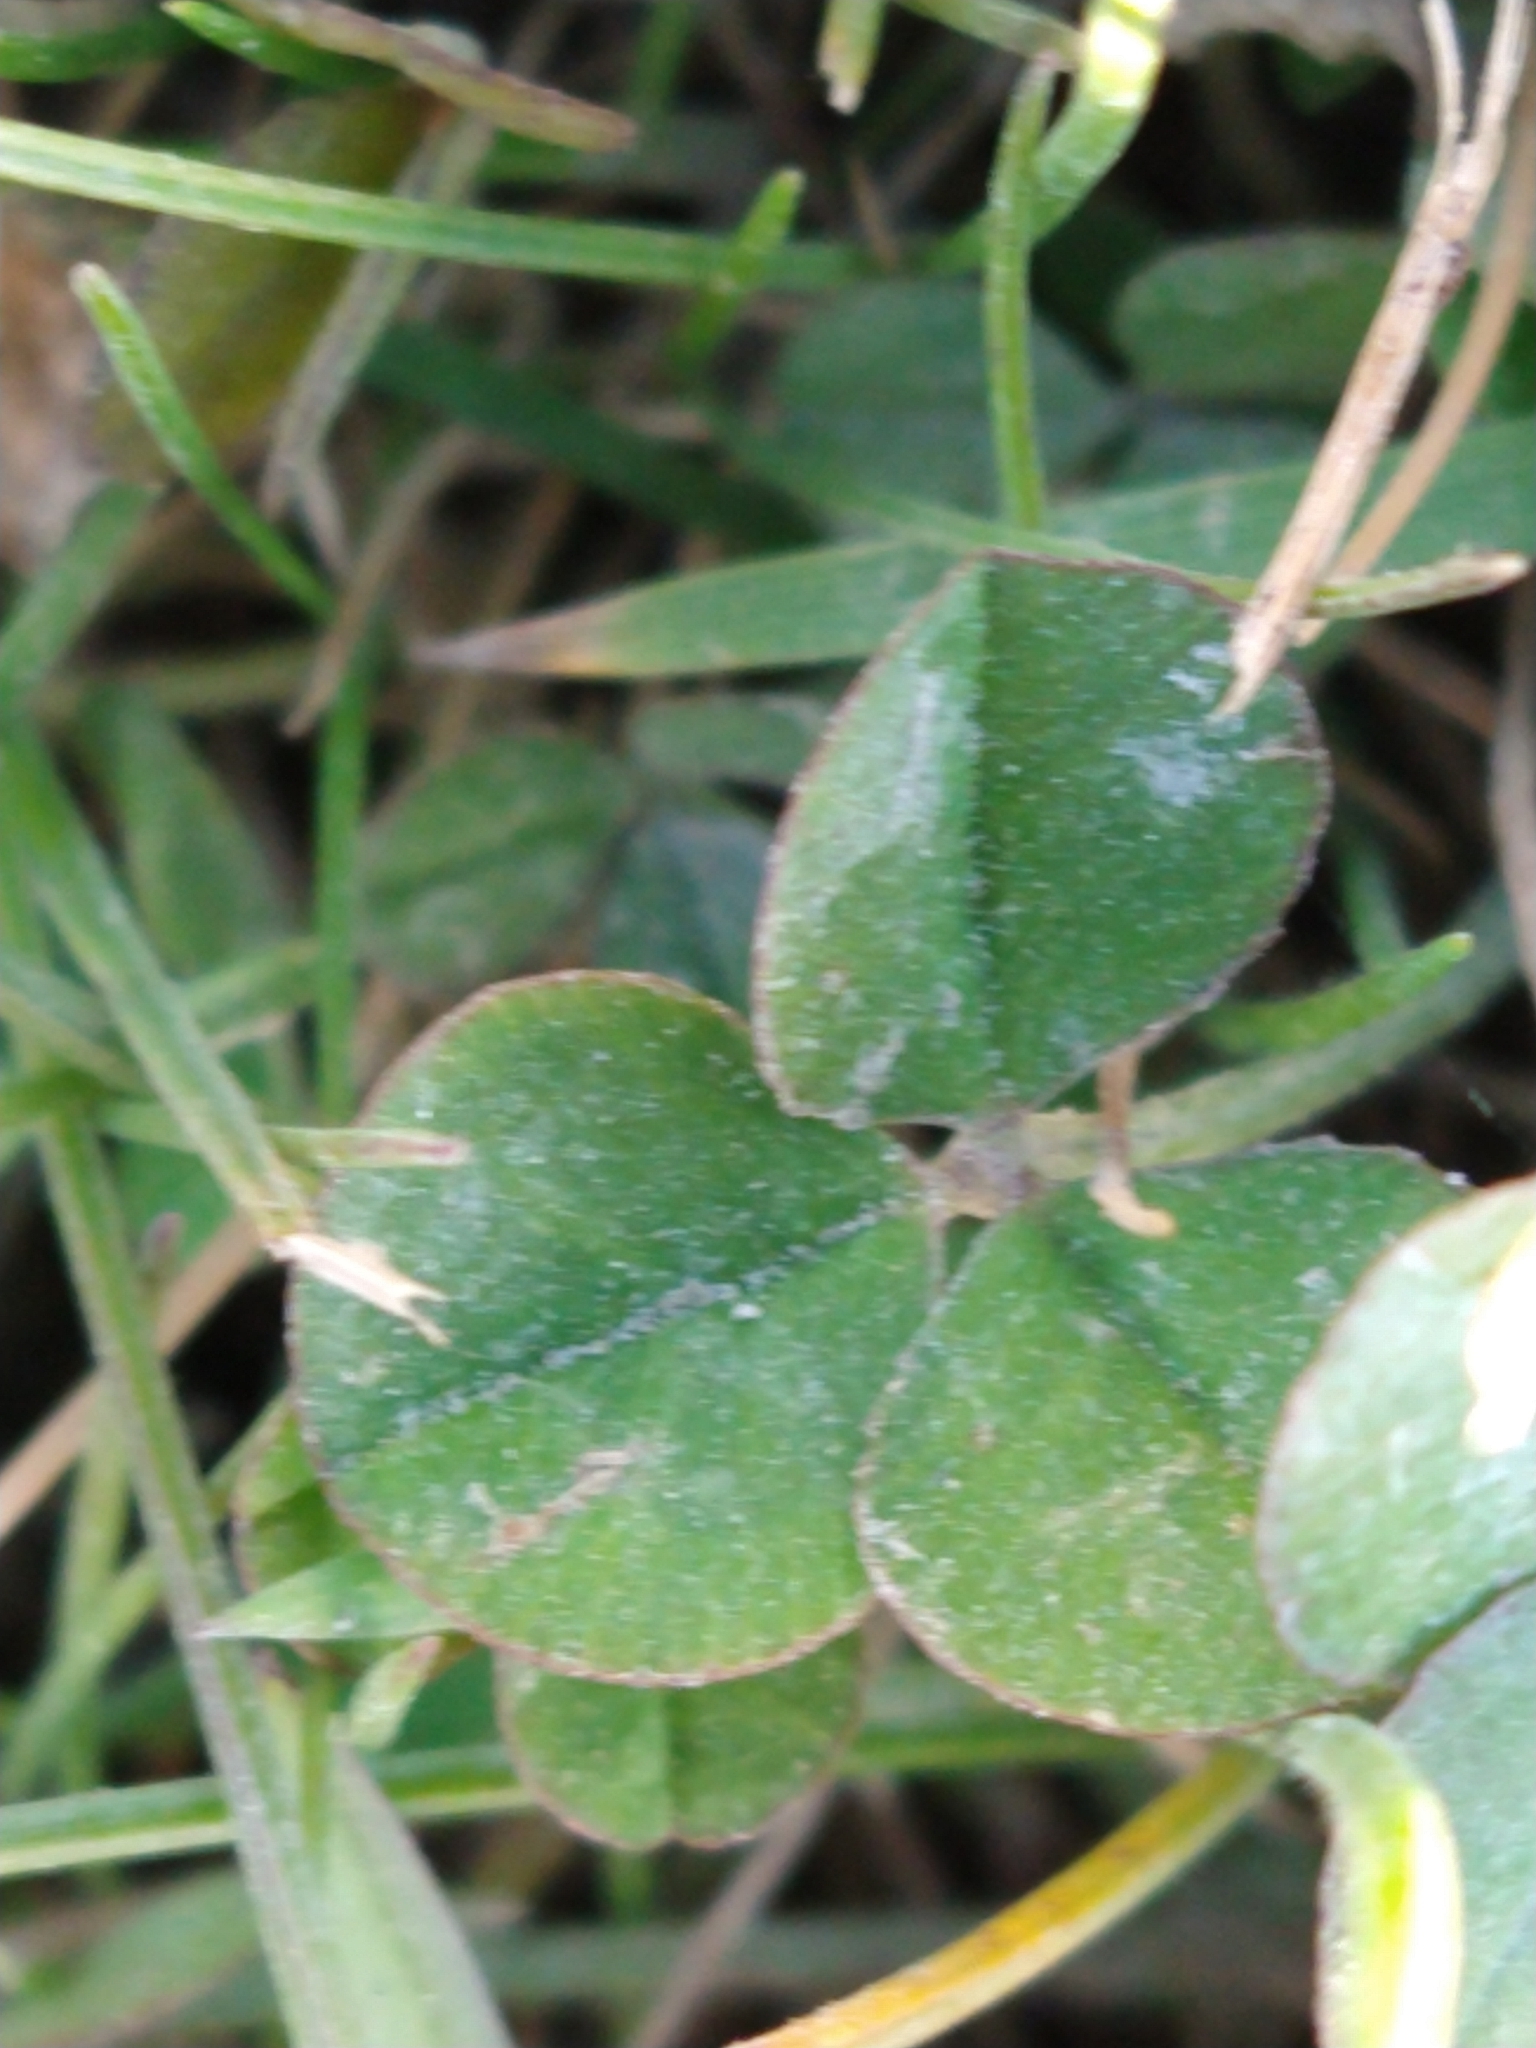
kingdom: Plantae
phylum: Tracheophyta
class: Magnoliopsida
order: Fabales
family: Fabaceae
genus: Trifolium
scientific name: Trifolium repens
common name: White clover
